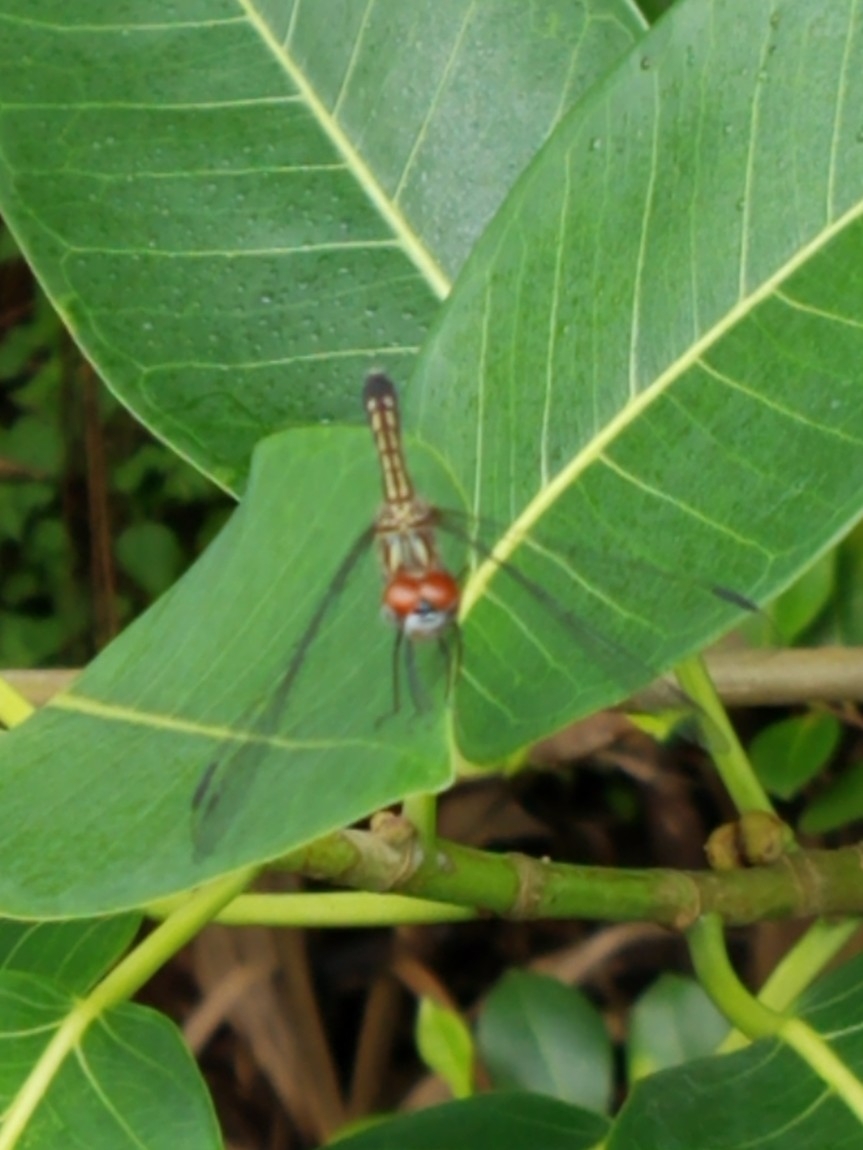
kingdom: Animalia
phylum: Arthropoda
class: Insecta
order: Odonata
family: Libellulidae
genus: Pachydiplax
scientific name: Pachydiplax longipennis
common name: Blue dasher
